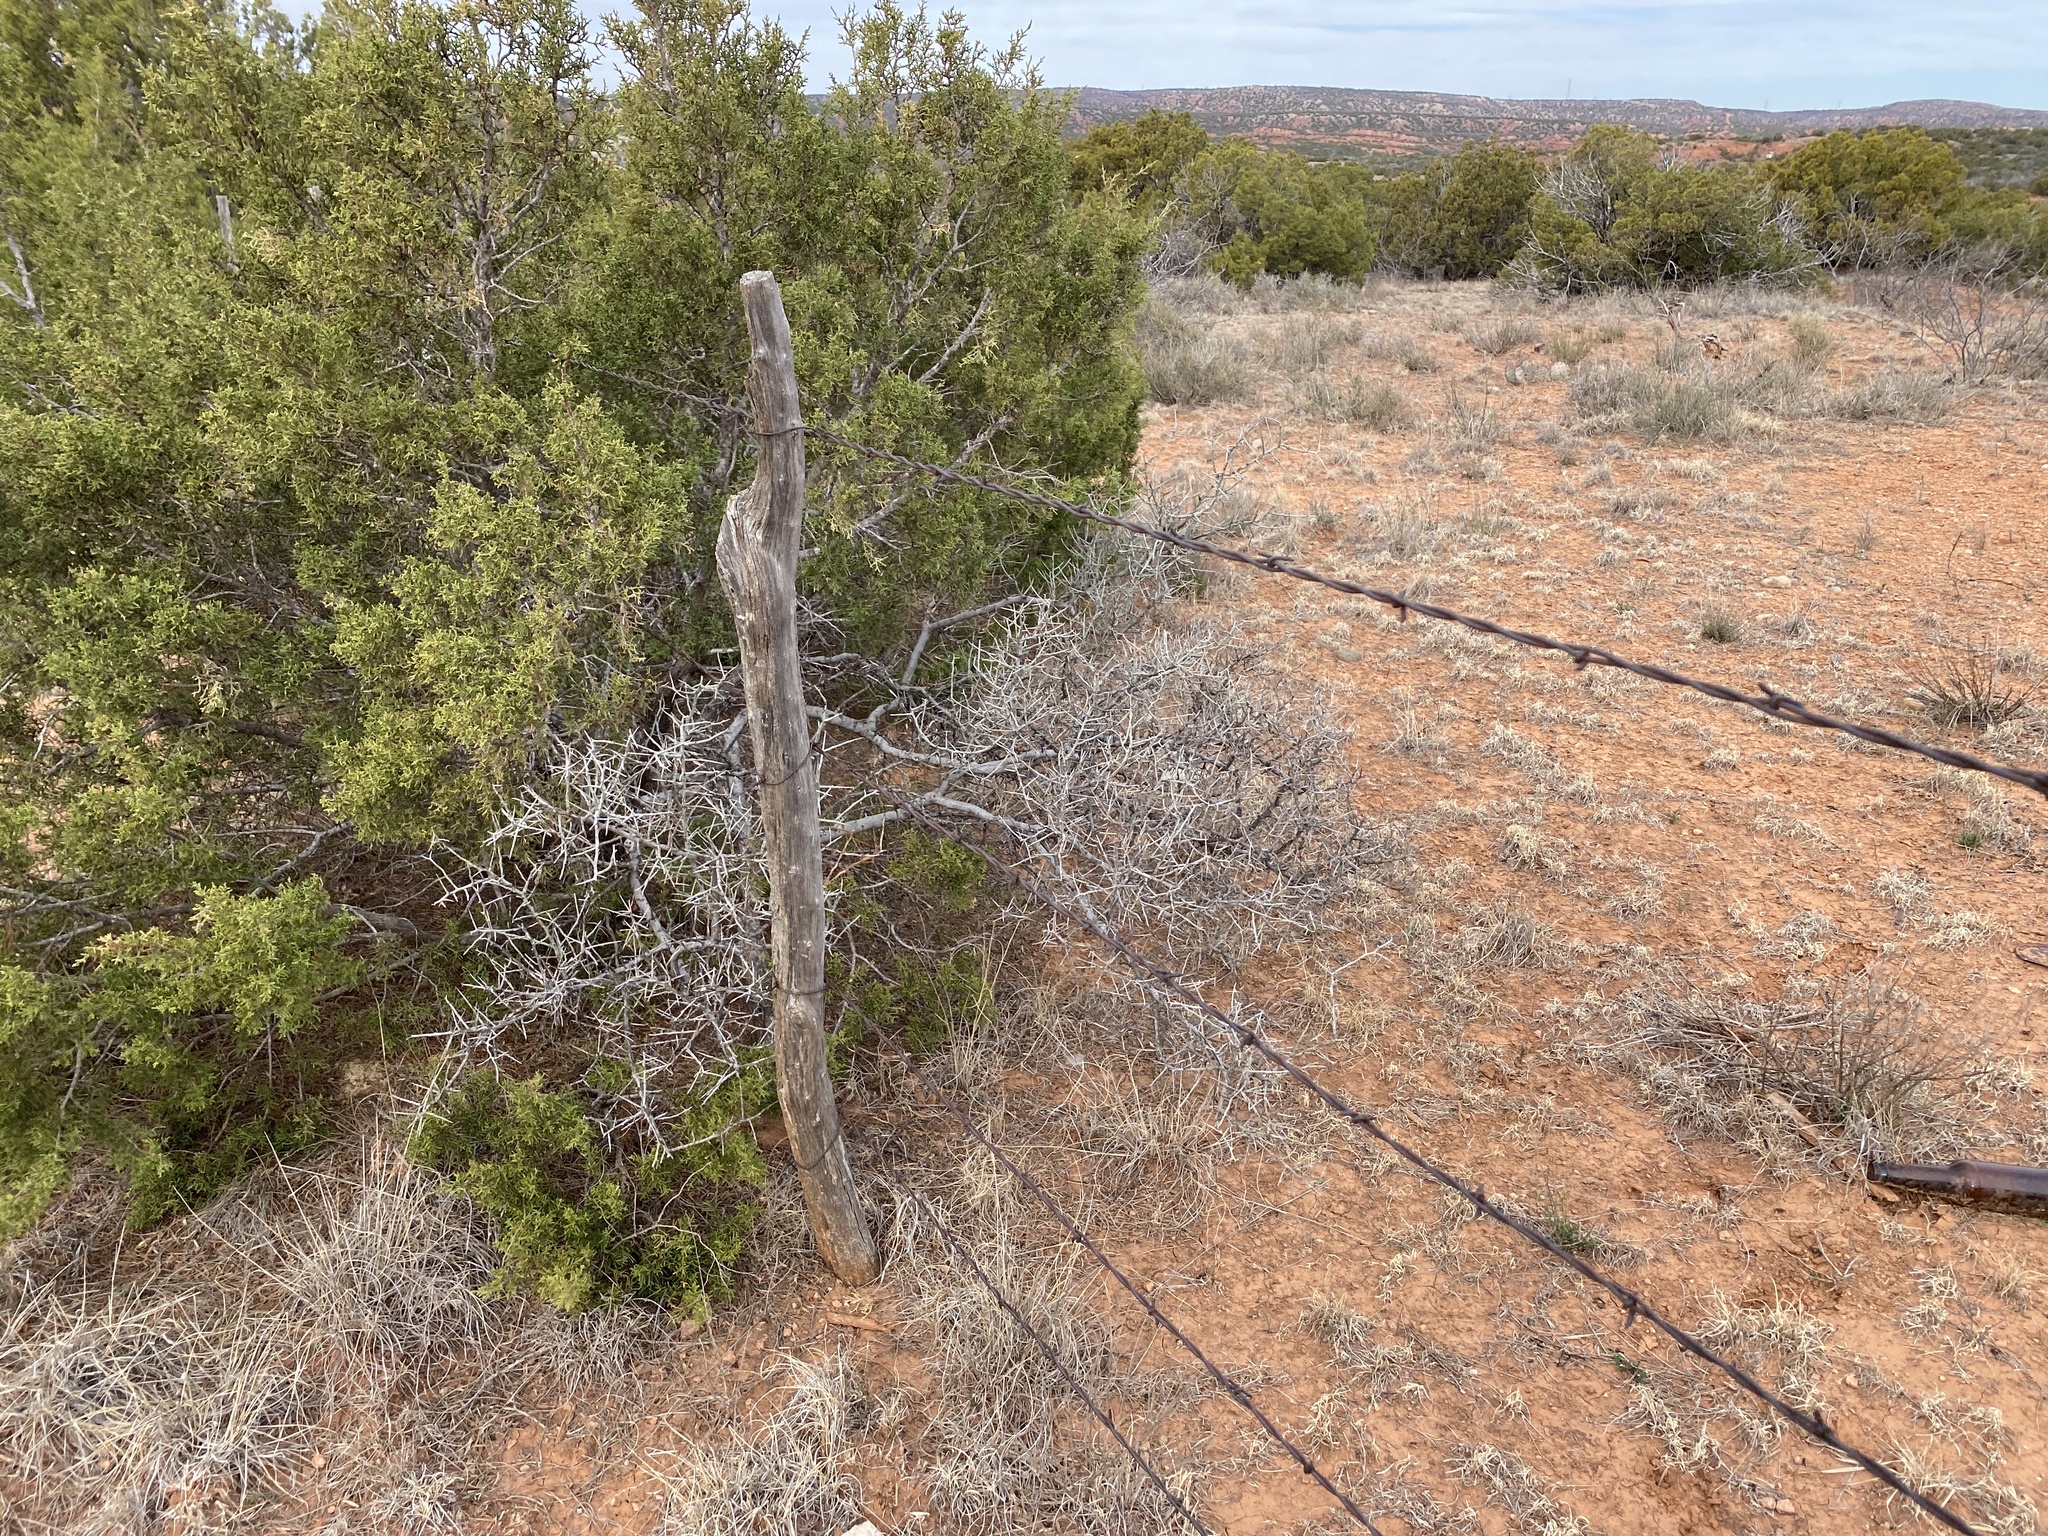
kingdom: Plantae
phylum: Tracheophyta
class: Magnoliopsida
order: Rosales
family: Rhamnaceae
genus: Sarcomphalus
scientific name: Sarcomphalus obtusifolius
